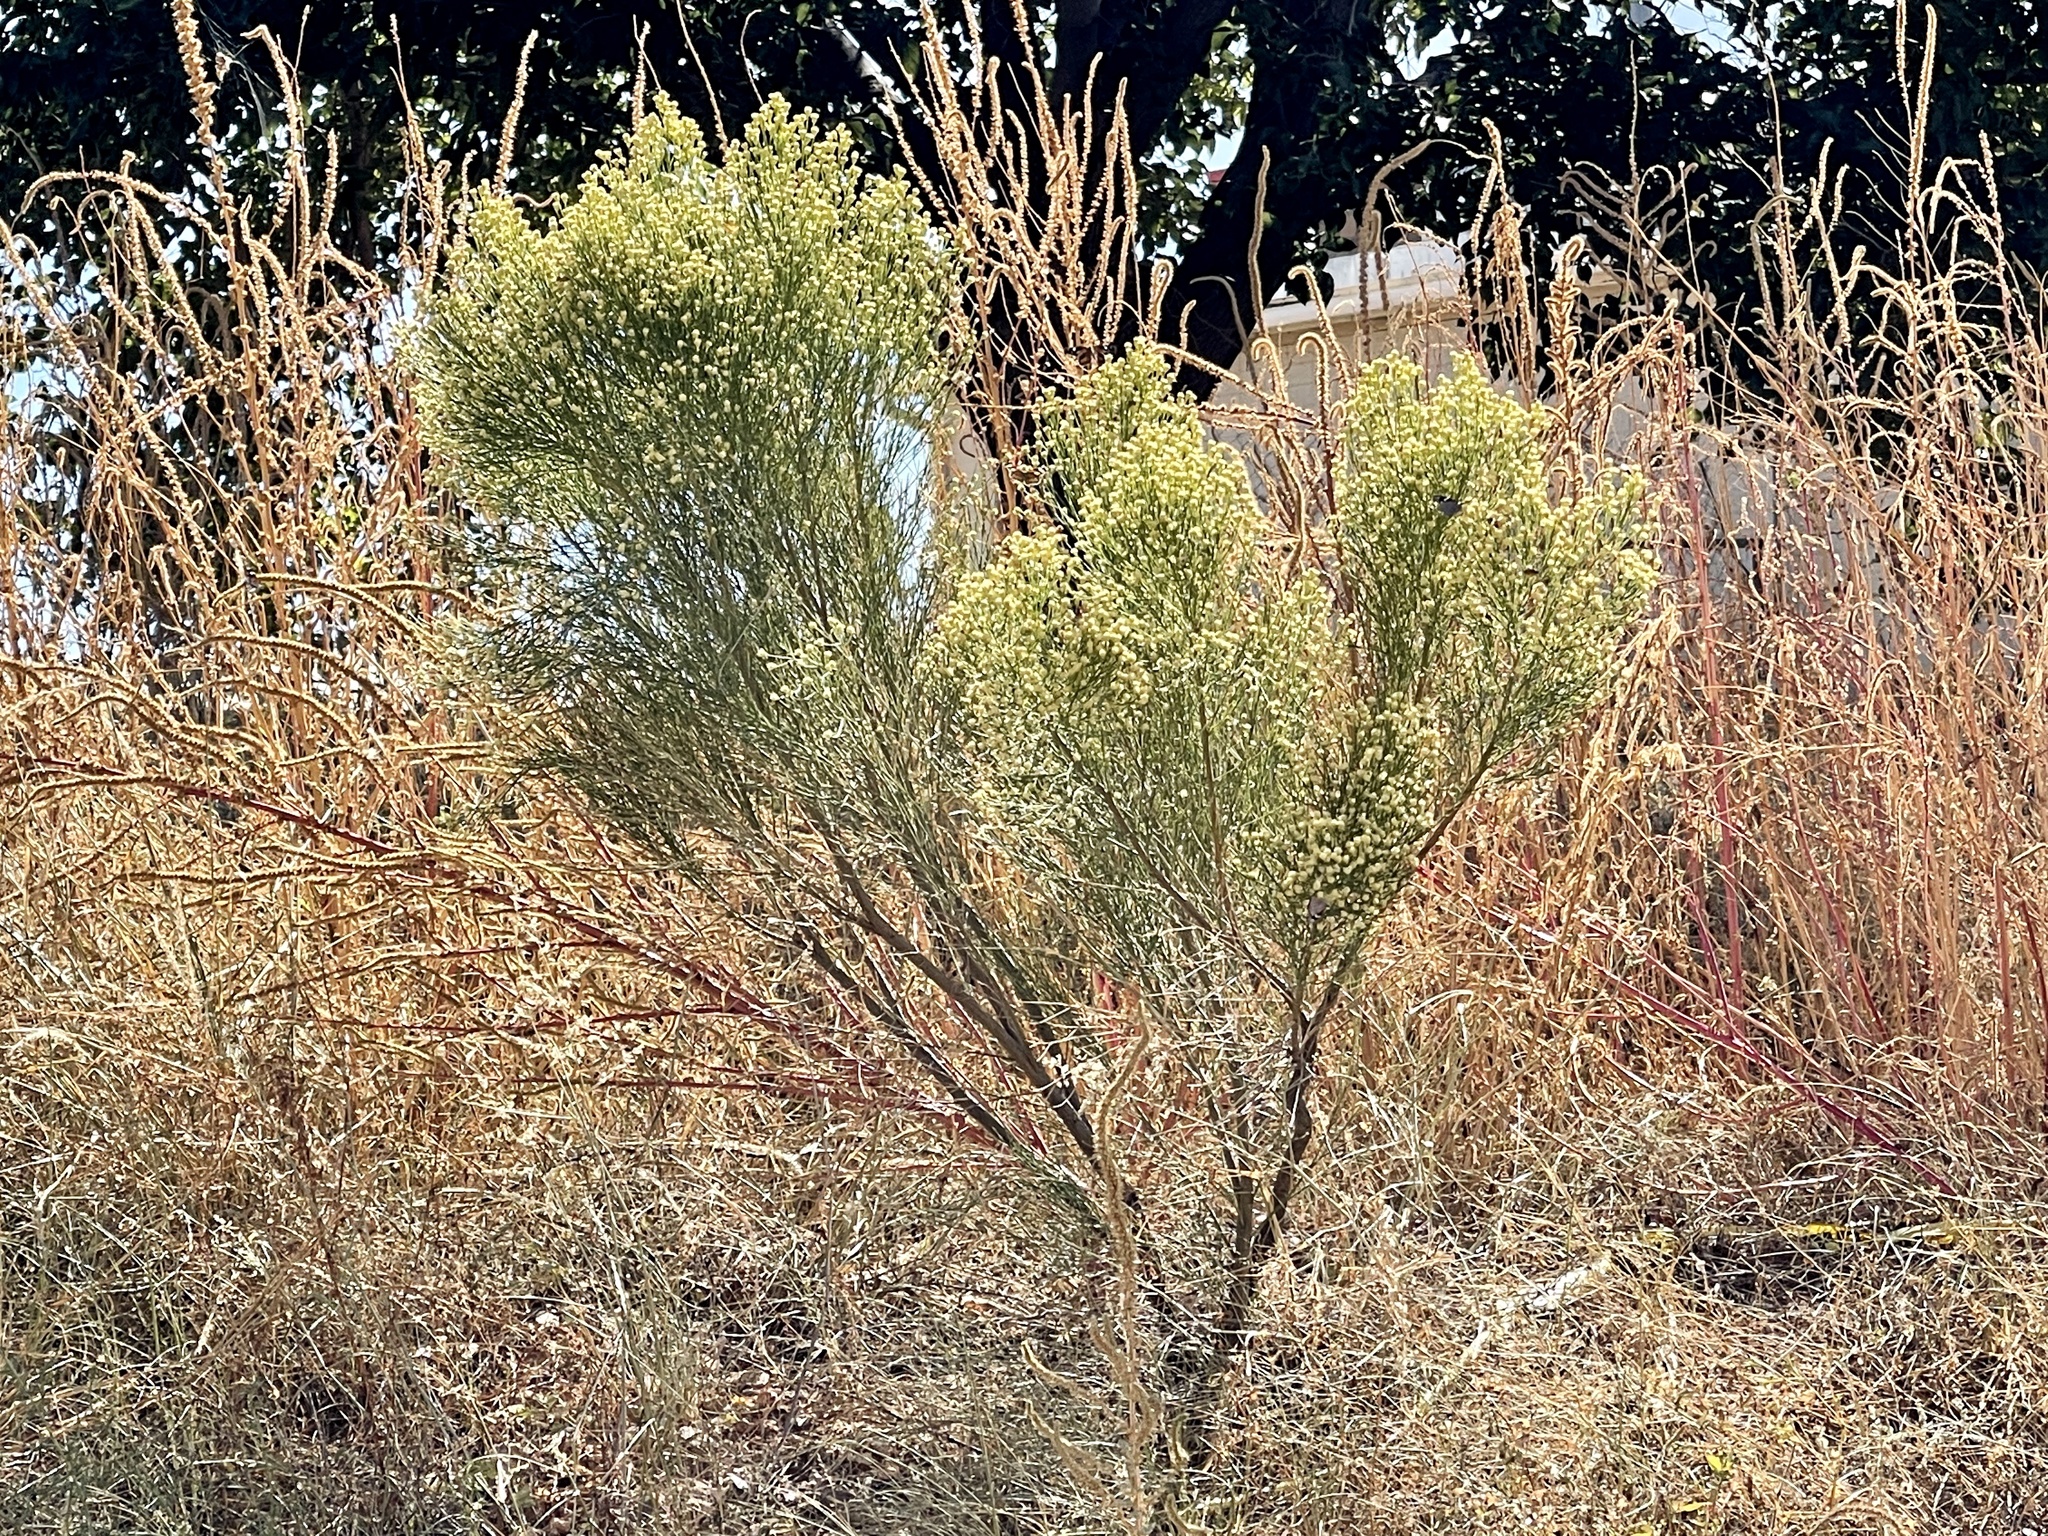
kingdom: Plantae
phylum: Tracheophyta
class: Magnoliopsida
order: Asterales
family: Asteraceae
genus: Baccharis
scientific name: Baccharis sarothroides
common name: Desert-broom
